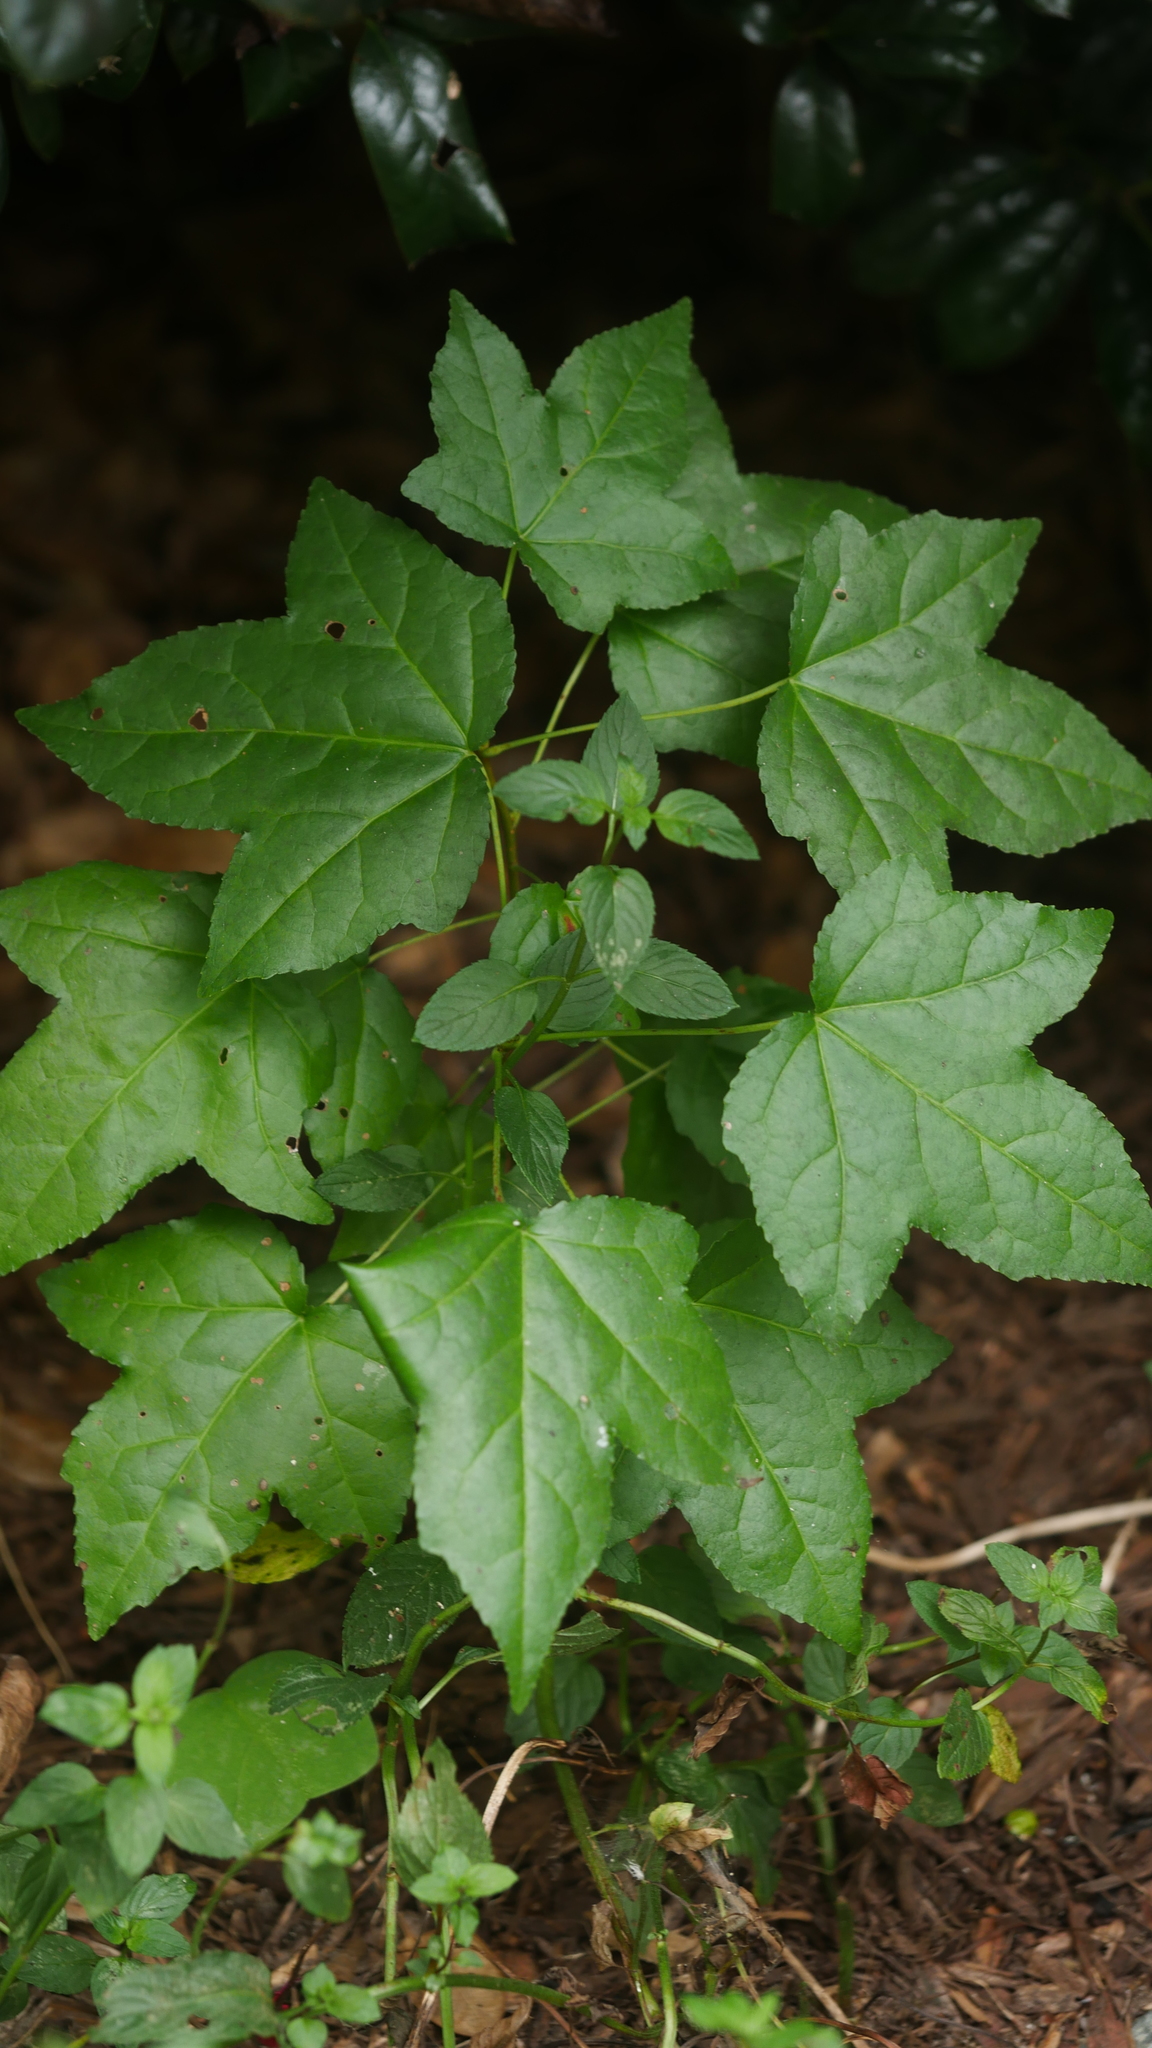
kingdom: Plantae
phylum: Tracheophyta
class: Magnoliopsida
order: Saxifragales
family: Altingiaceae
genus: Liquidambar
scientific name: Liquidambar styraciflua
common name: Sweet gum
